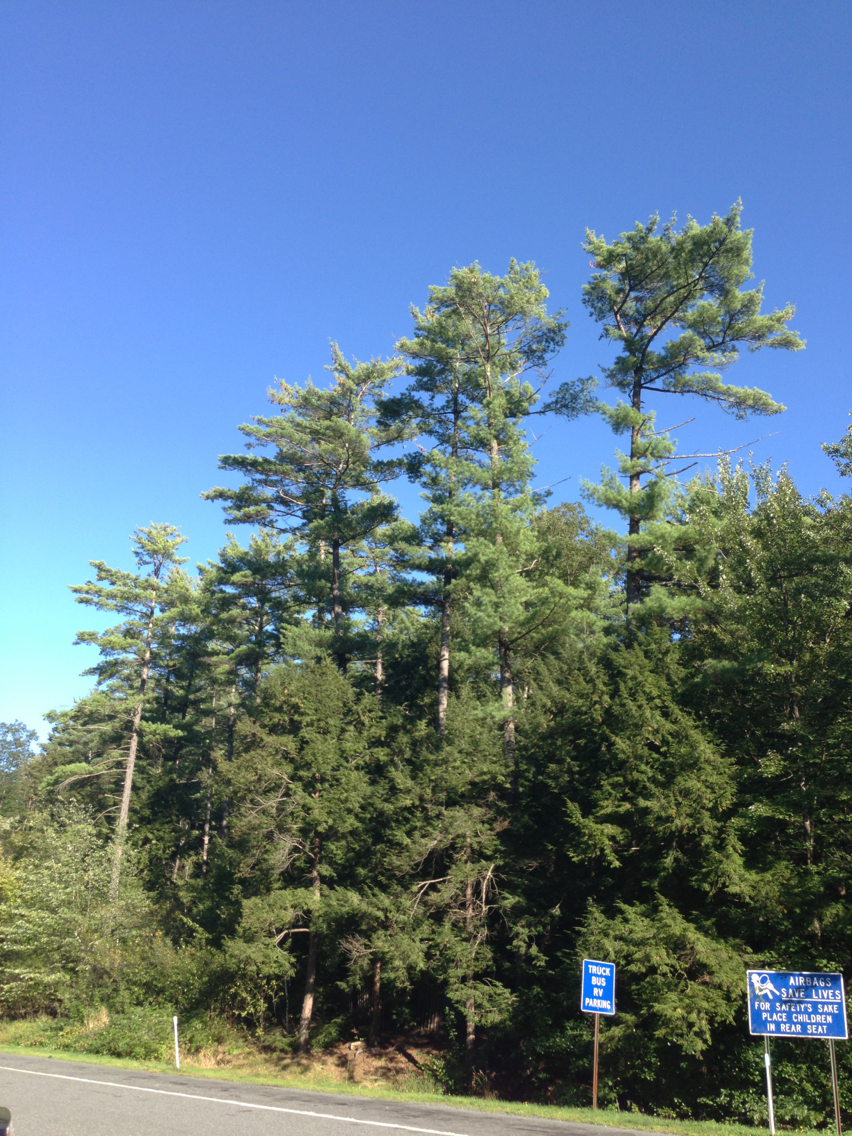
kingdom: Plantae
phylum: Tracheophyta
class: Pinopsida
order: Pinales
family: Pinaceae
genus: Pinus
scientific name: Pinus strobus
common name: Weymouth pine
